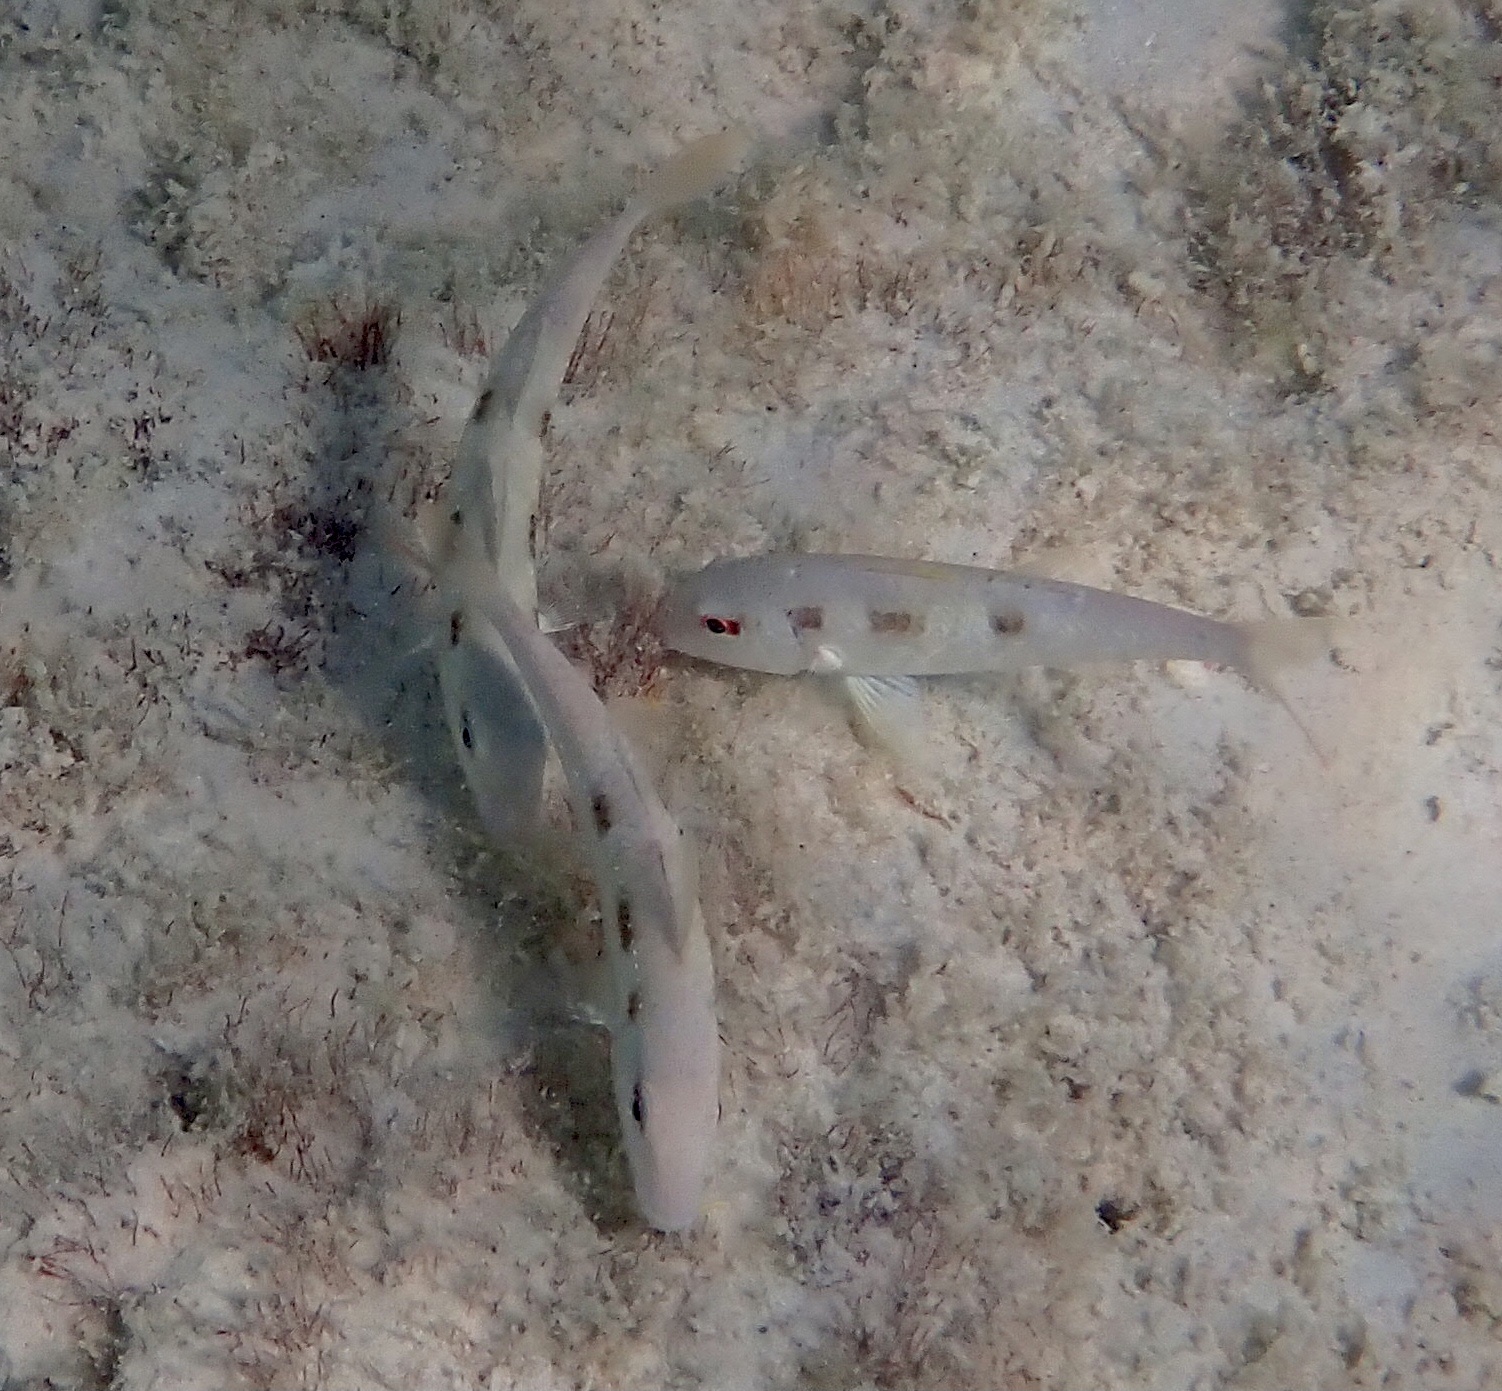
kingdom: Animalia
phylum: Chordata
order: Perciformes
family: Mullidae
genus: Pseudupeneus
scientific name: Pseudupeneus maculatus
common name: Spotted goatfish
